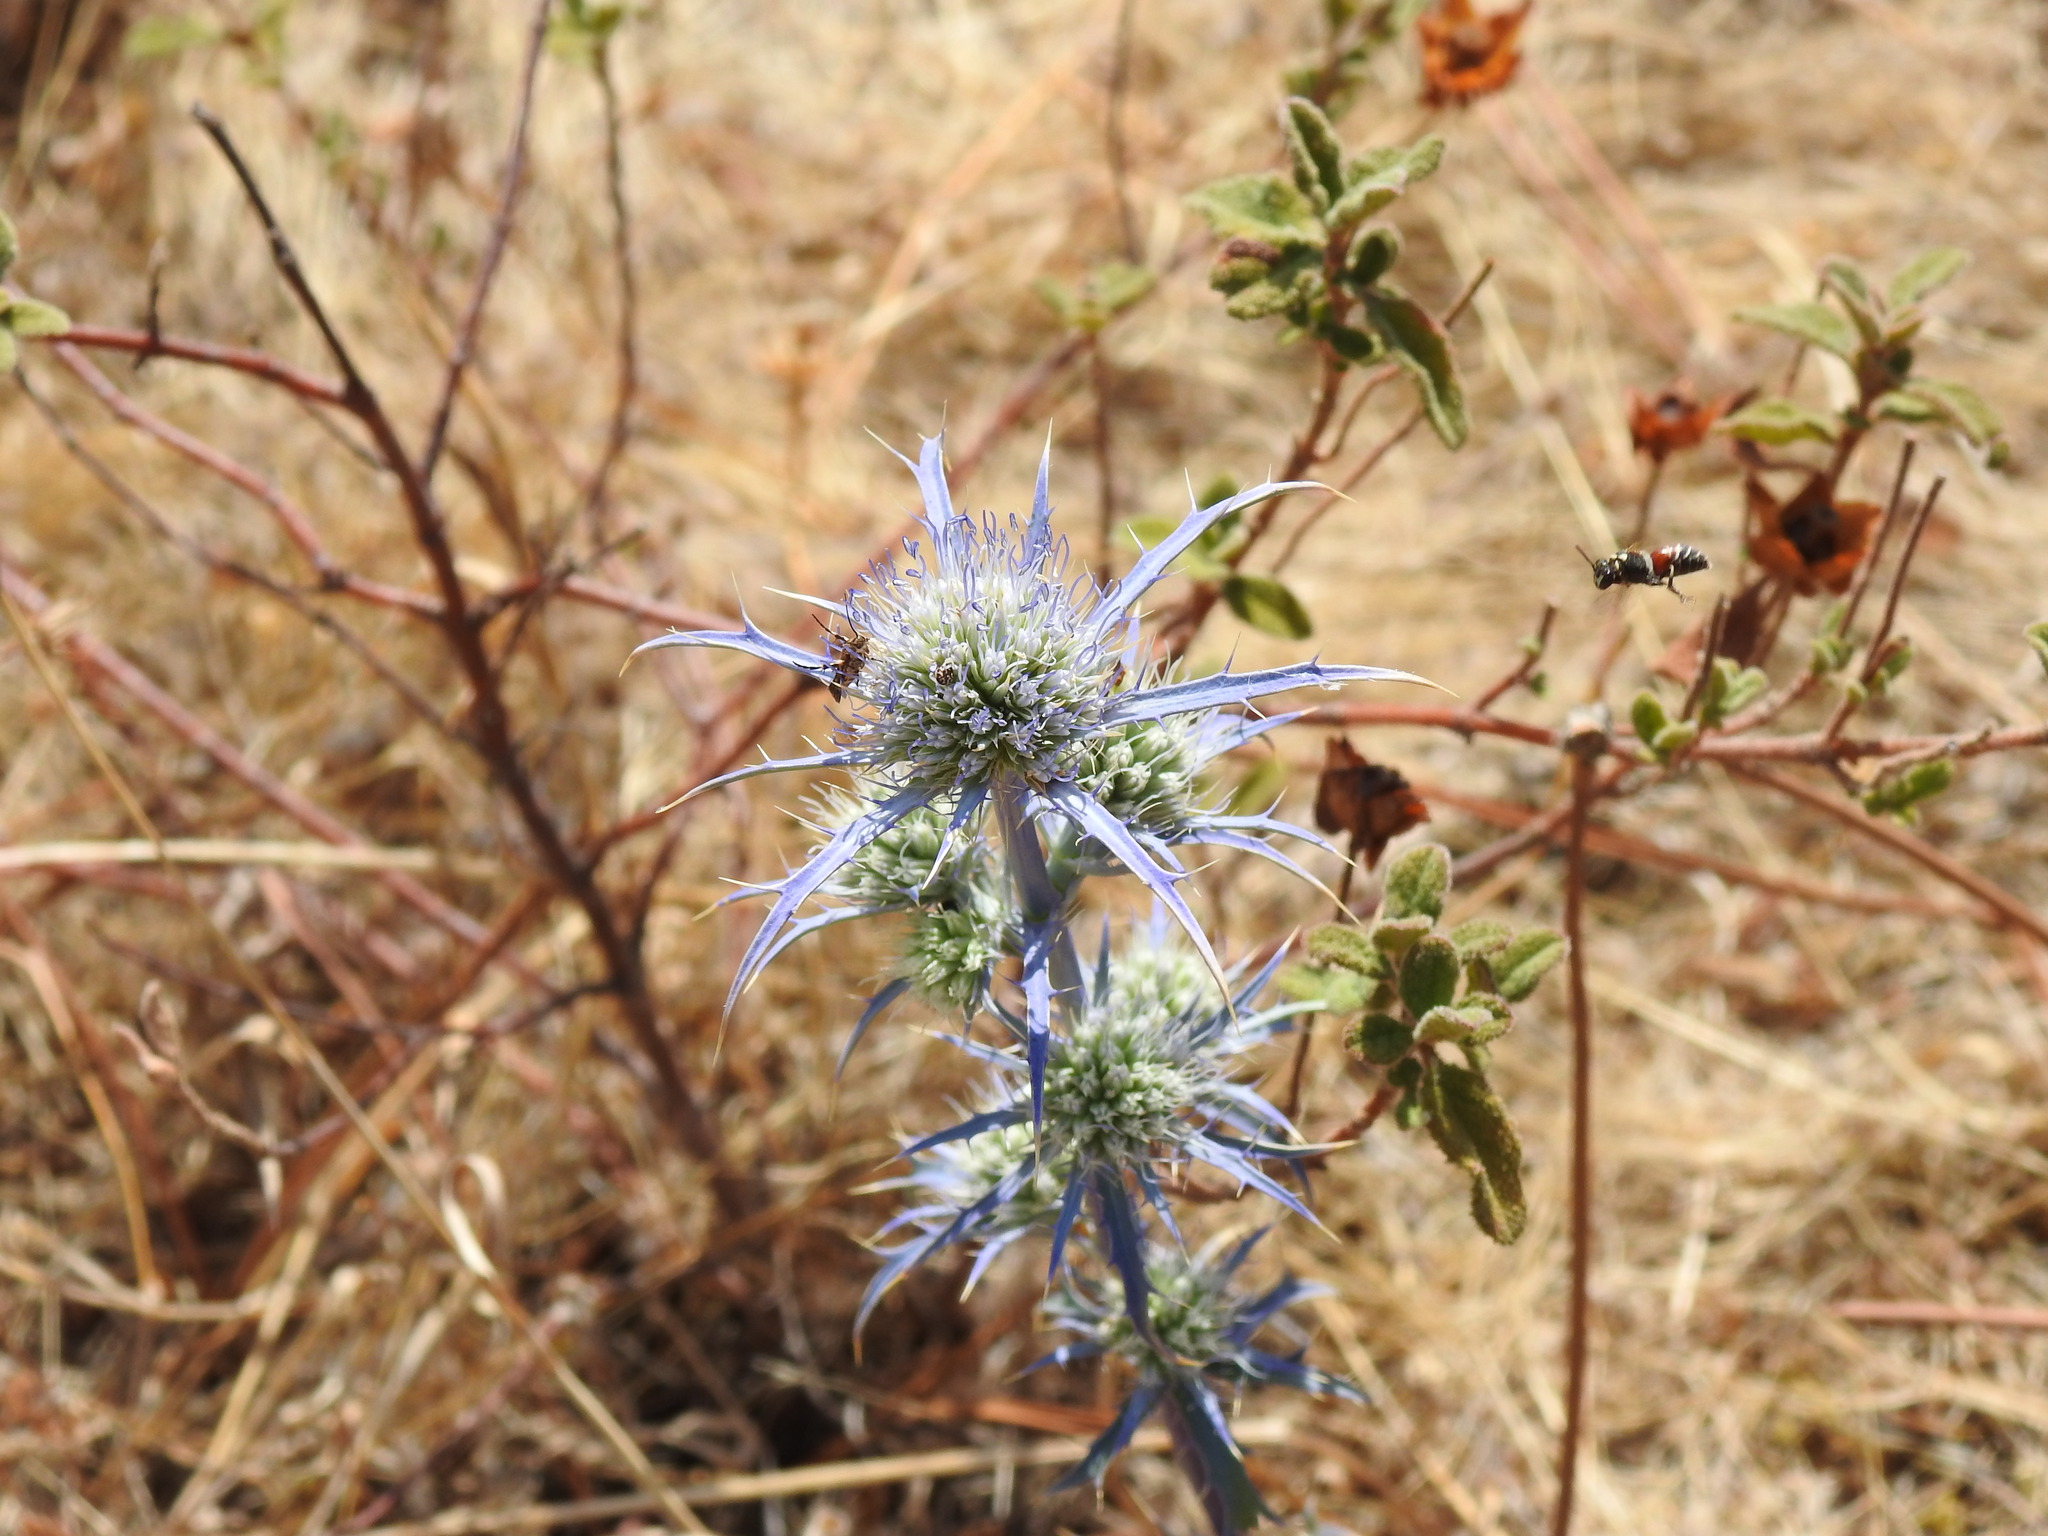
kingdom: Plantae
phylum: Tracheophyta
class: Magnoliopsida
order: Apiales
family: Apiaceae
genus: Eryngium
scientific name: Eryngium dilatatum
